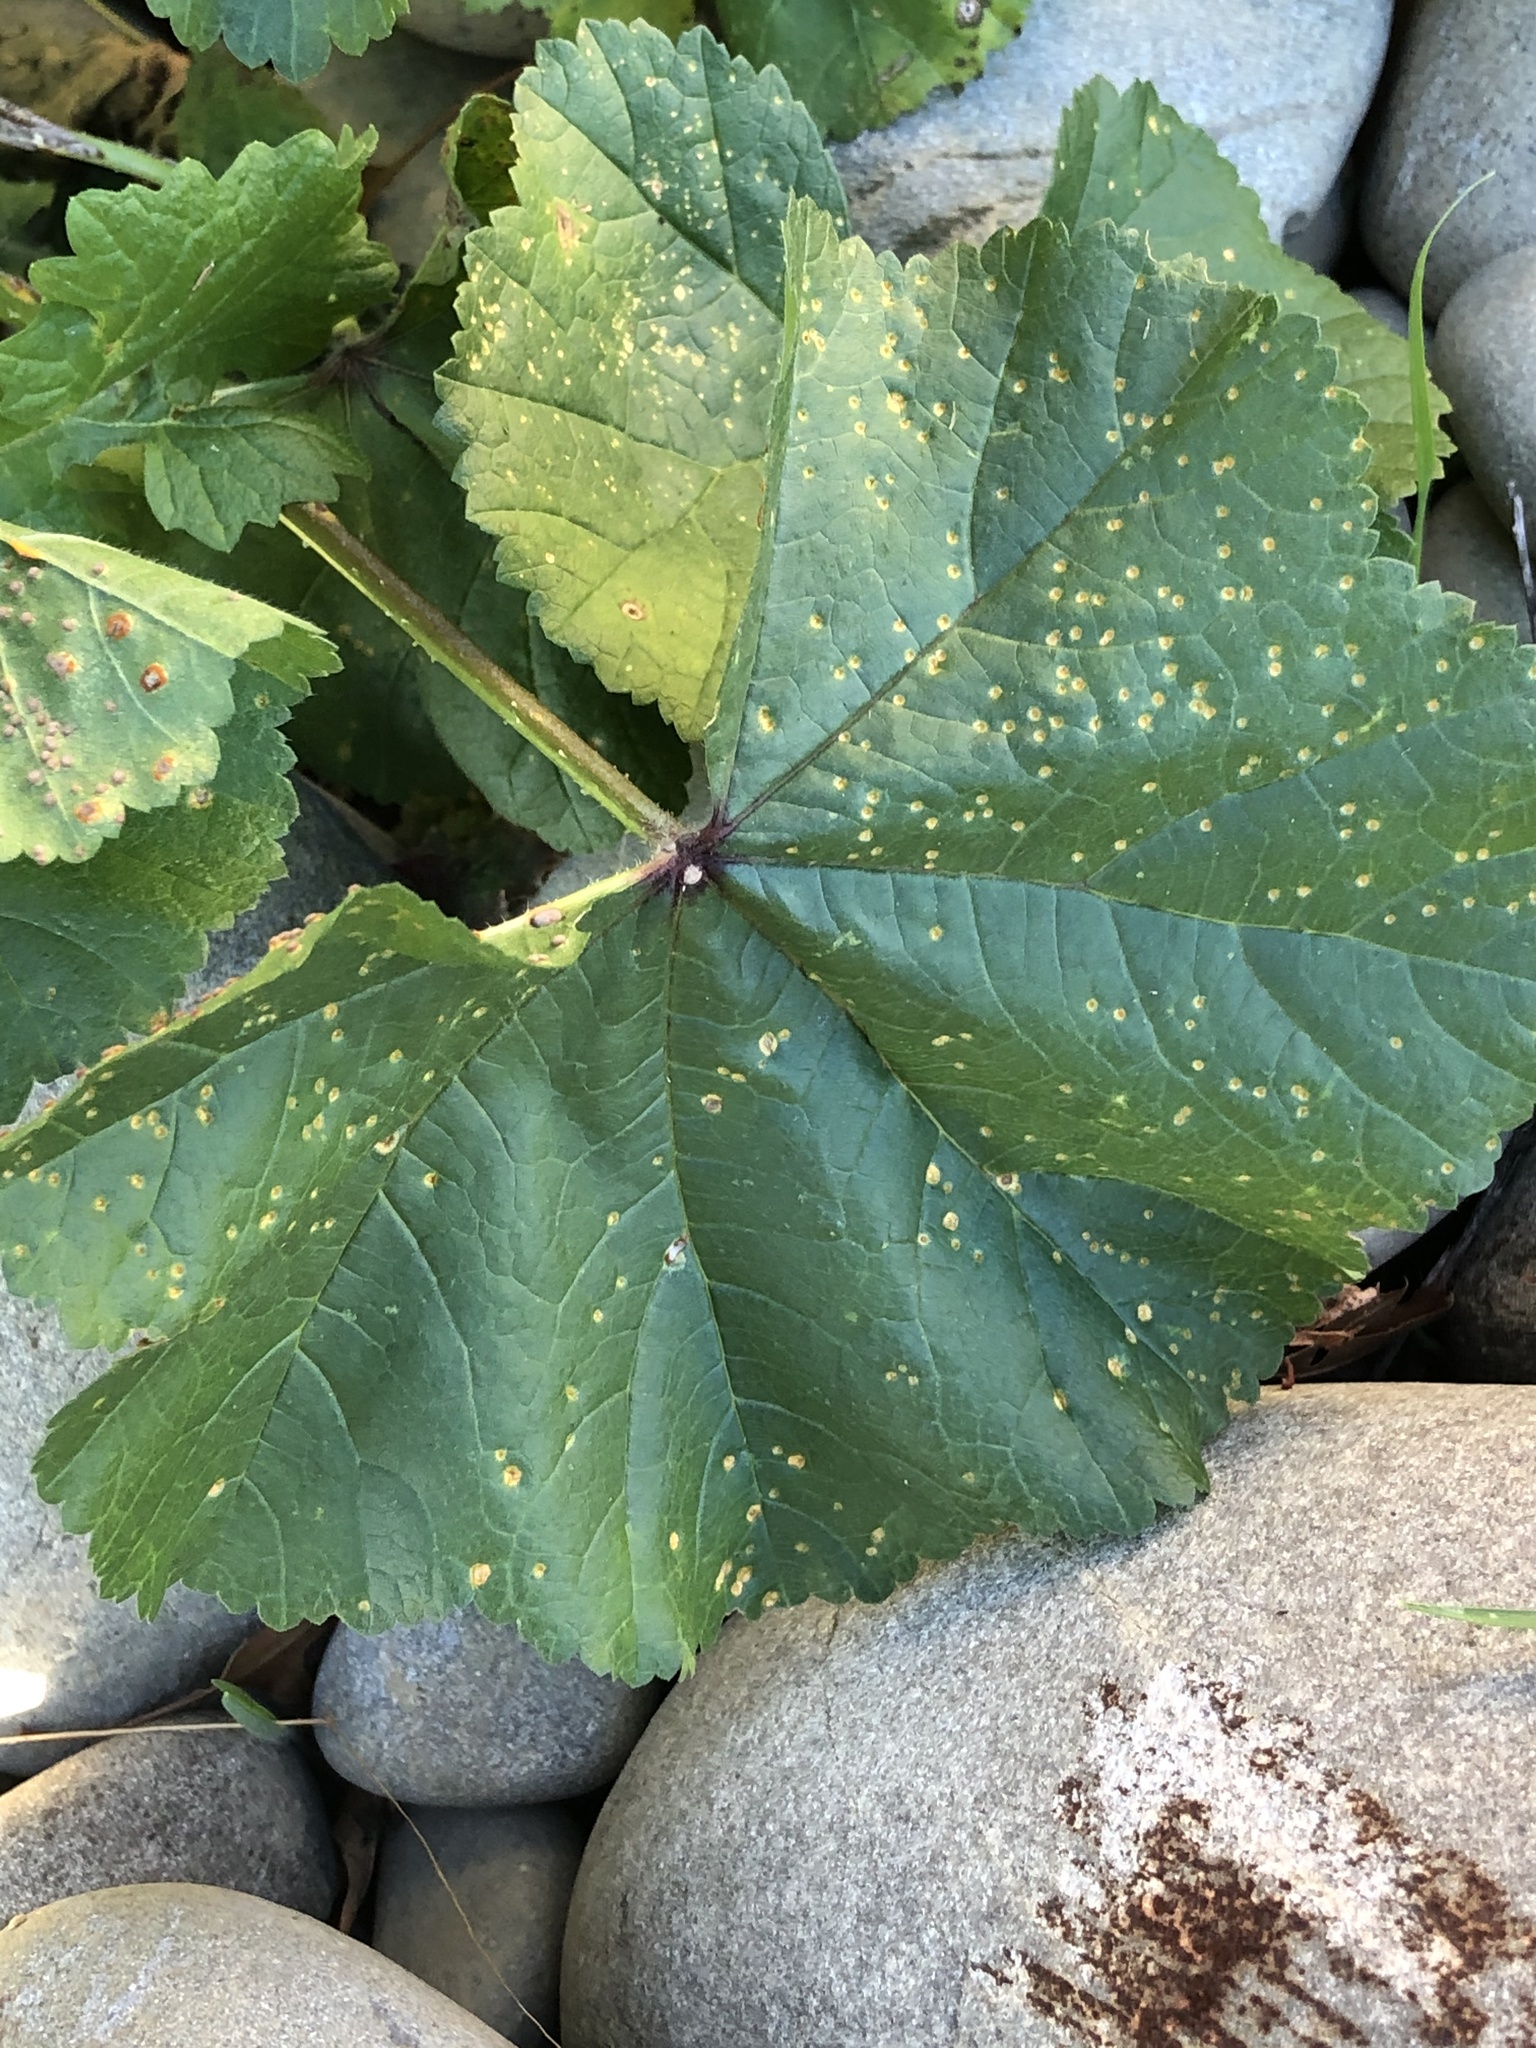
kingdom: Fungi
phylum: Basidiomycota
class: Pucciniomycetes
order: Pucciniales
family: Pucciniaceae
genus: Puccinia
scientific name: Puccinia malvacearum
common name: Hollyhock rust
